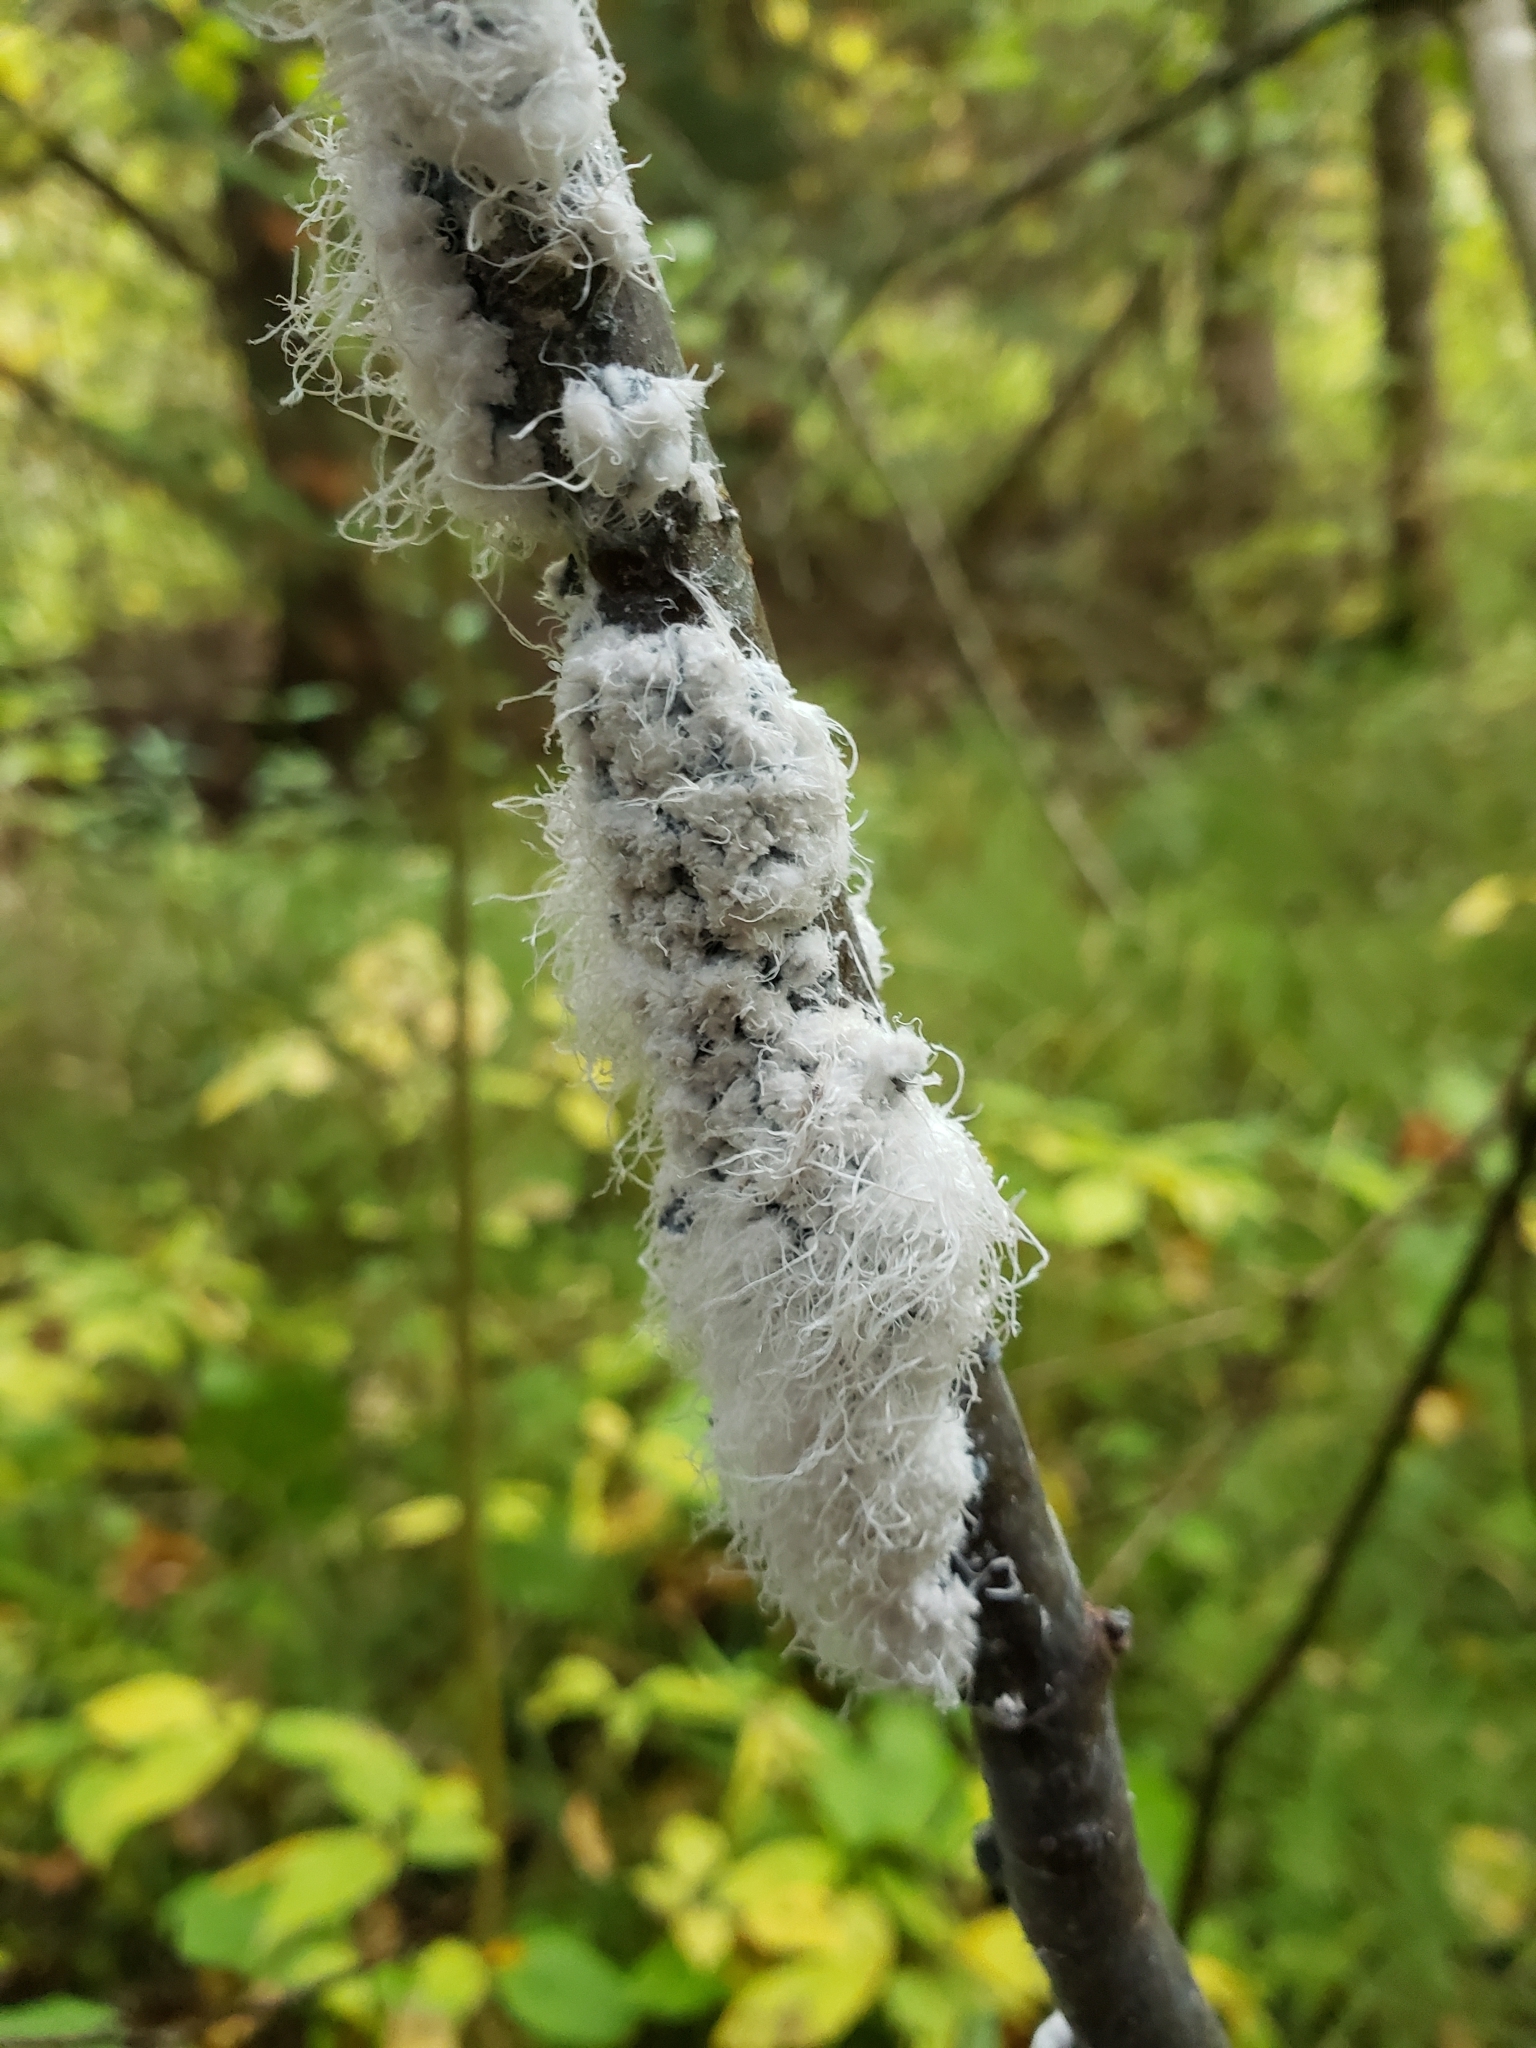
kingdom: Animalia
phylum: Arthropoda
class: Insecta
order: Hemiptera
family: Aphididae
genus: Prociphilus
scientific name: Prociphilus tessellatus
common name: Woolly alder aphid
